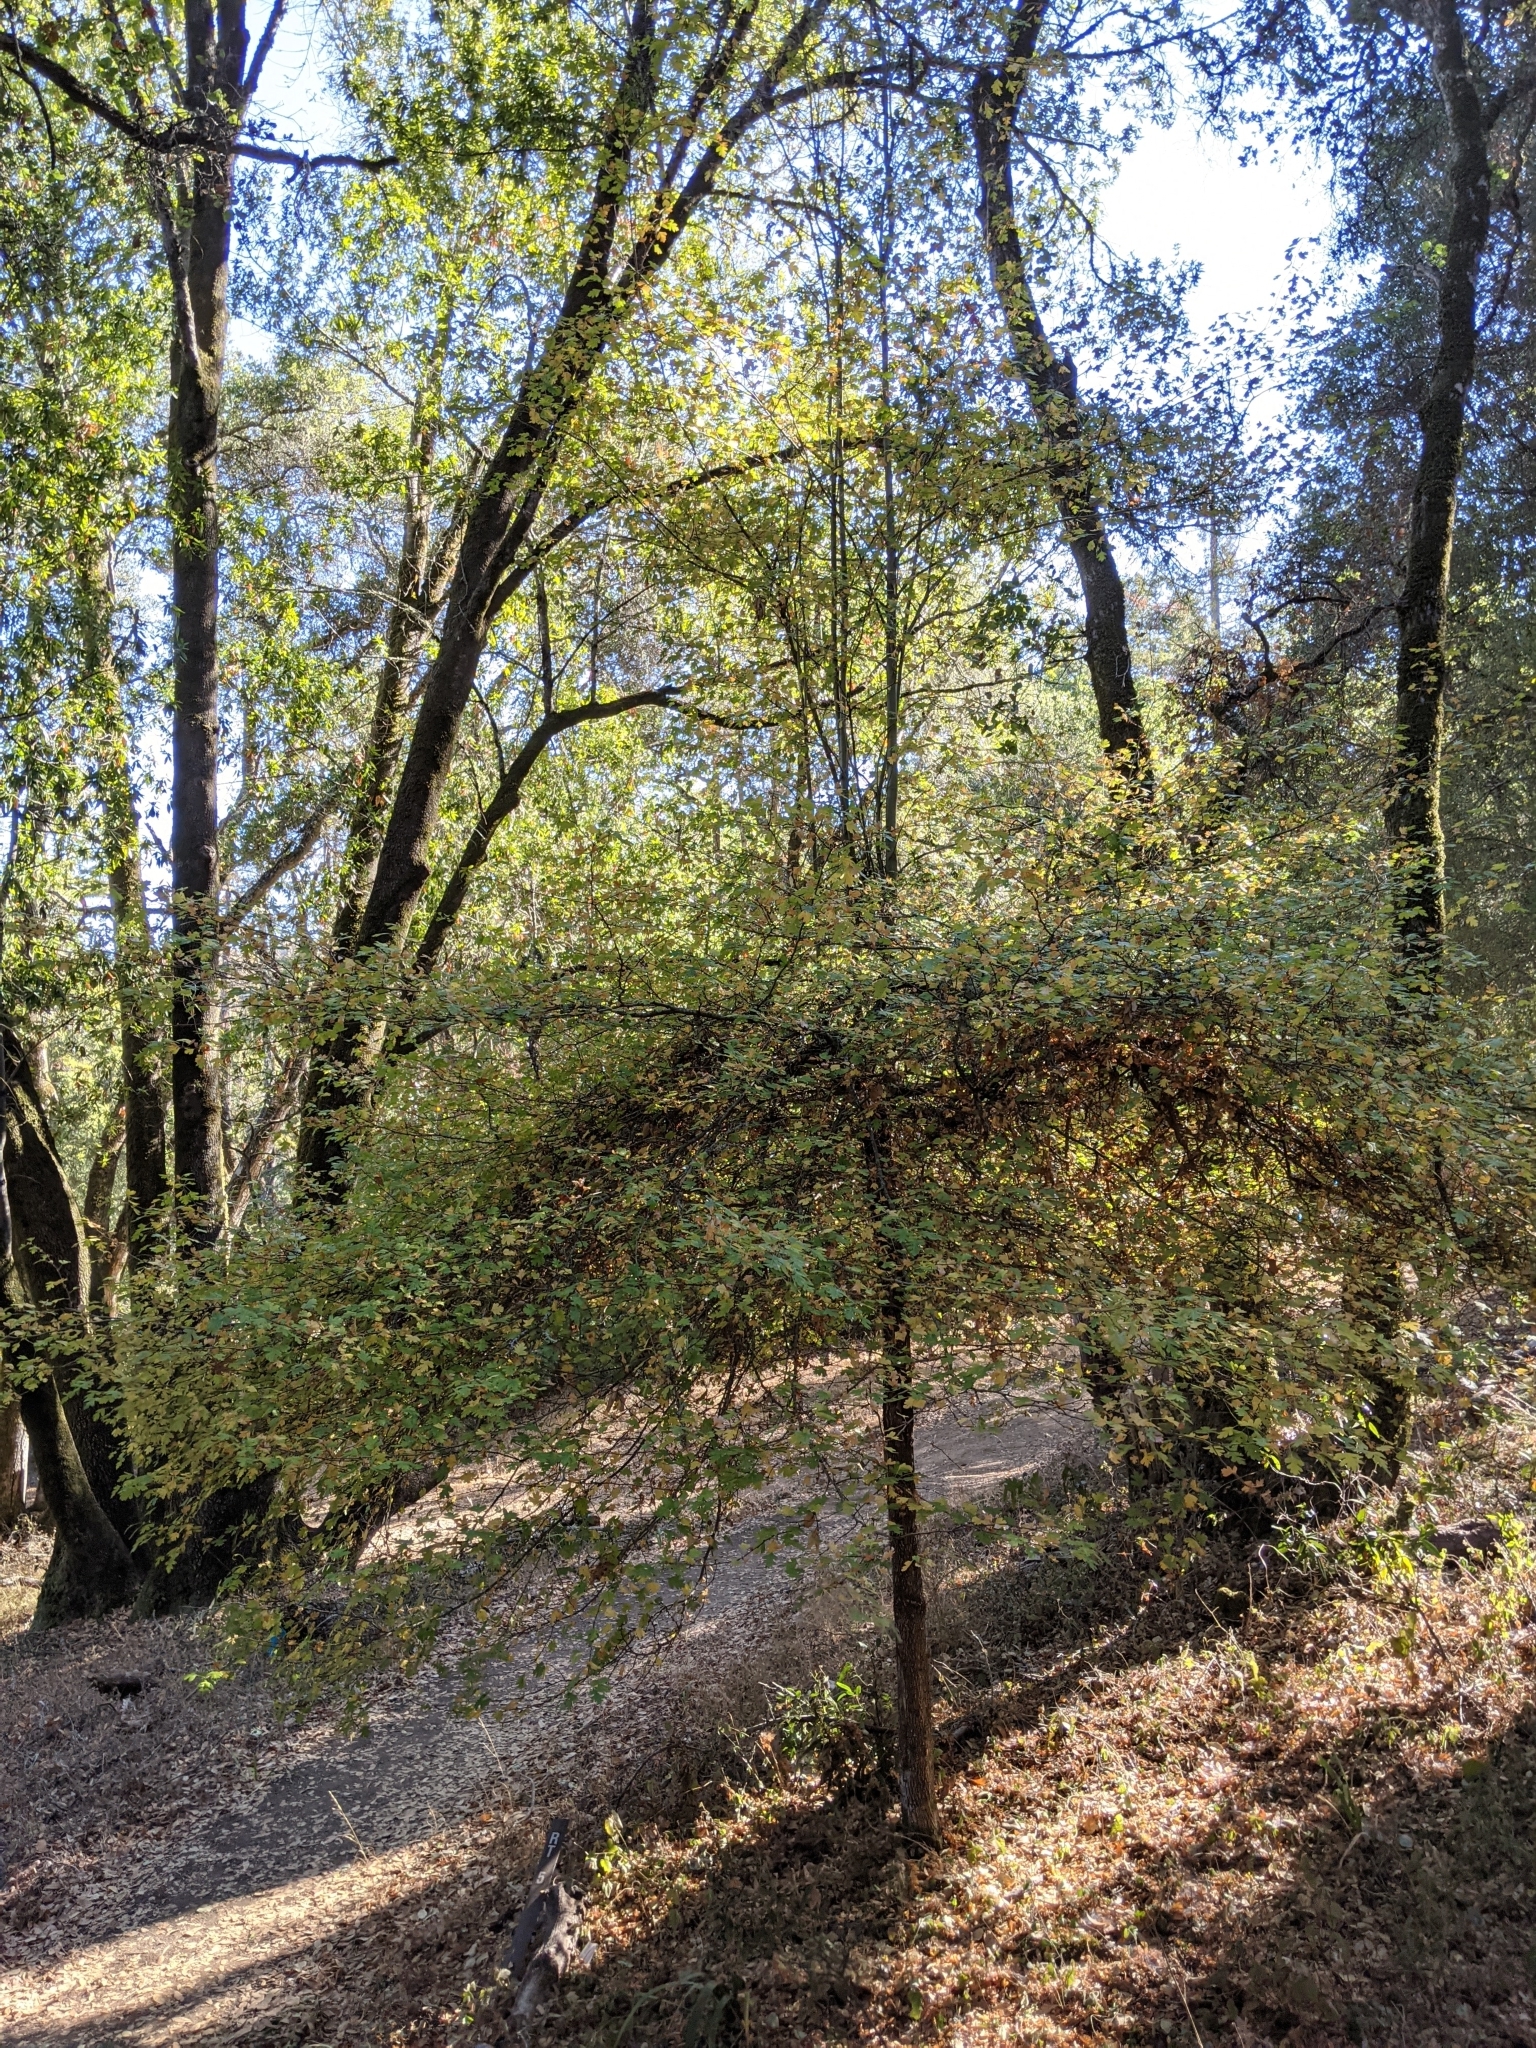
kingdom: Plantae
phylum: Tracheophyta
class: Magnoliopsida
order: Rosales
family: Rosaceae
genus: Crataegus
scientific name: Crataegus monogyna
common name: Hawthorn
